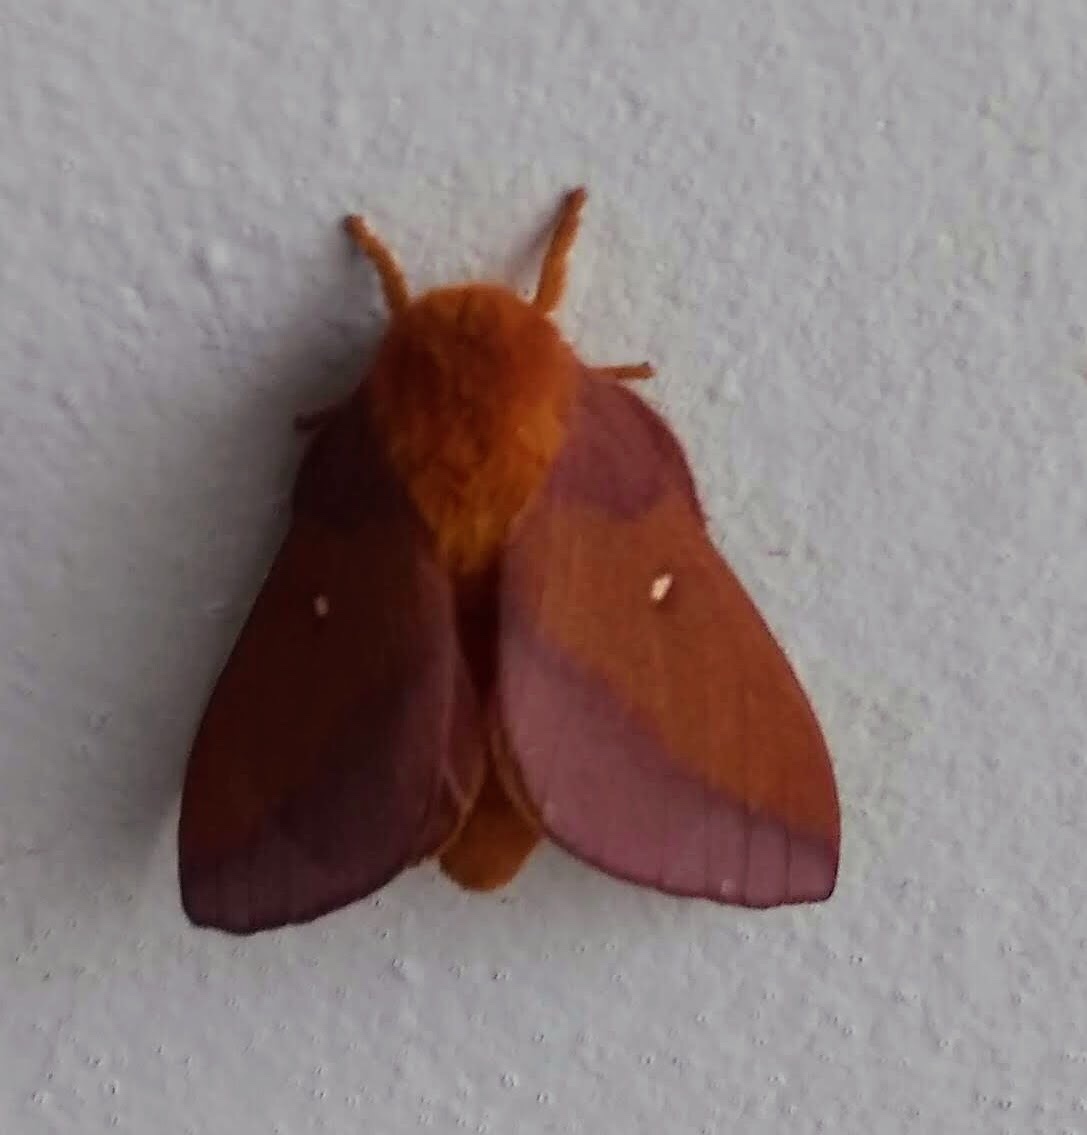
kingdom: Animalia
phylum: Arthropoda
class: Insecta
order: Lepidoptera
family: Saturniidae
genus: Anisota
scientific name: Anisota virginiensis
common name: Pink striped oakworm moth
